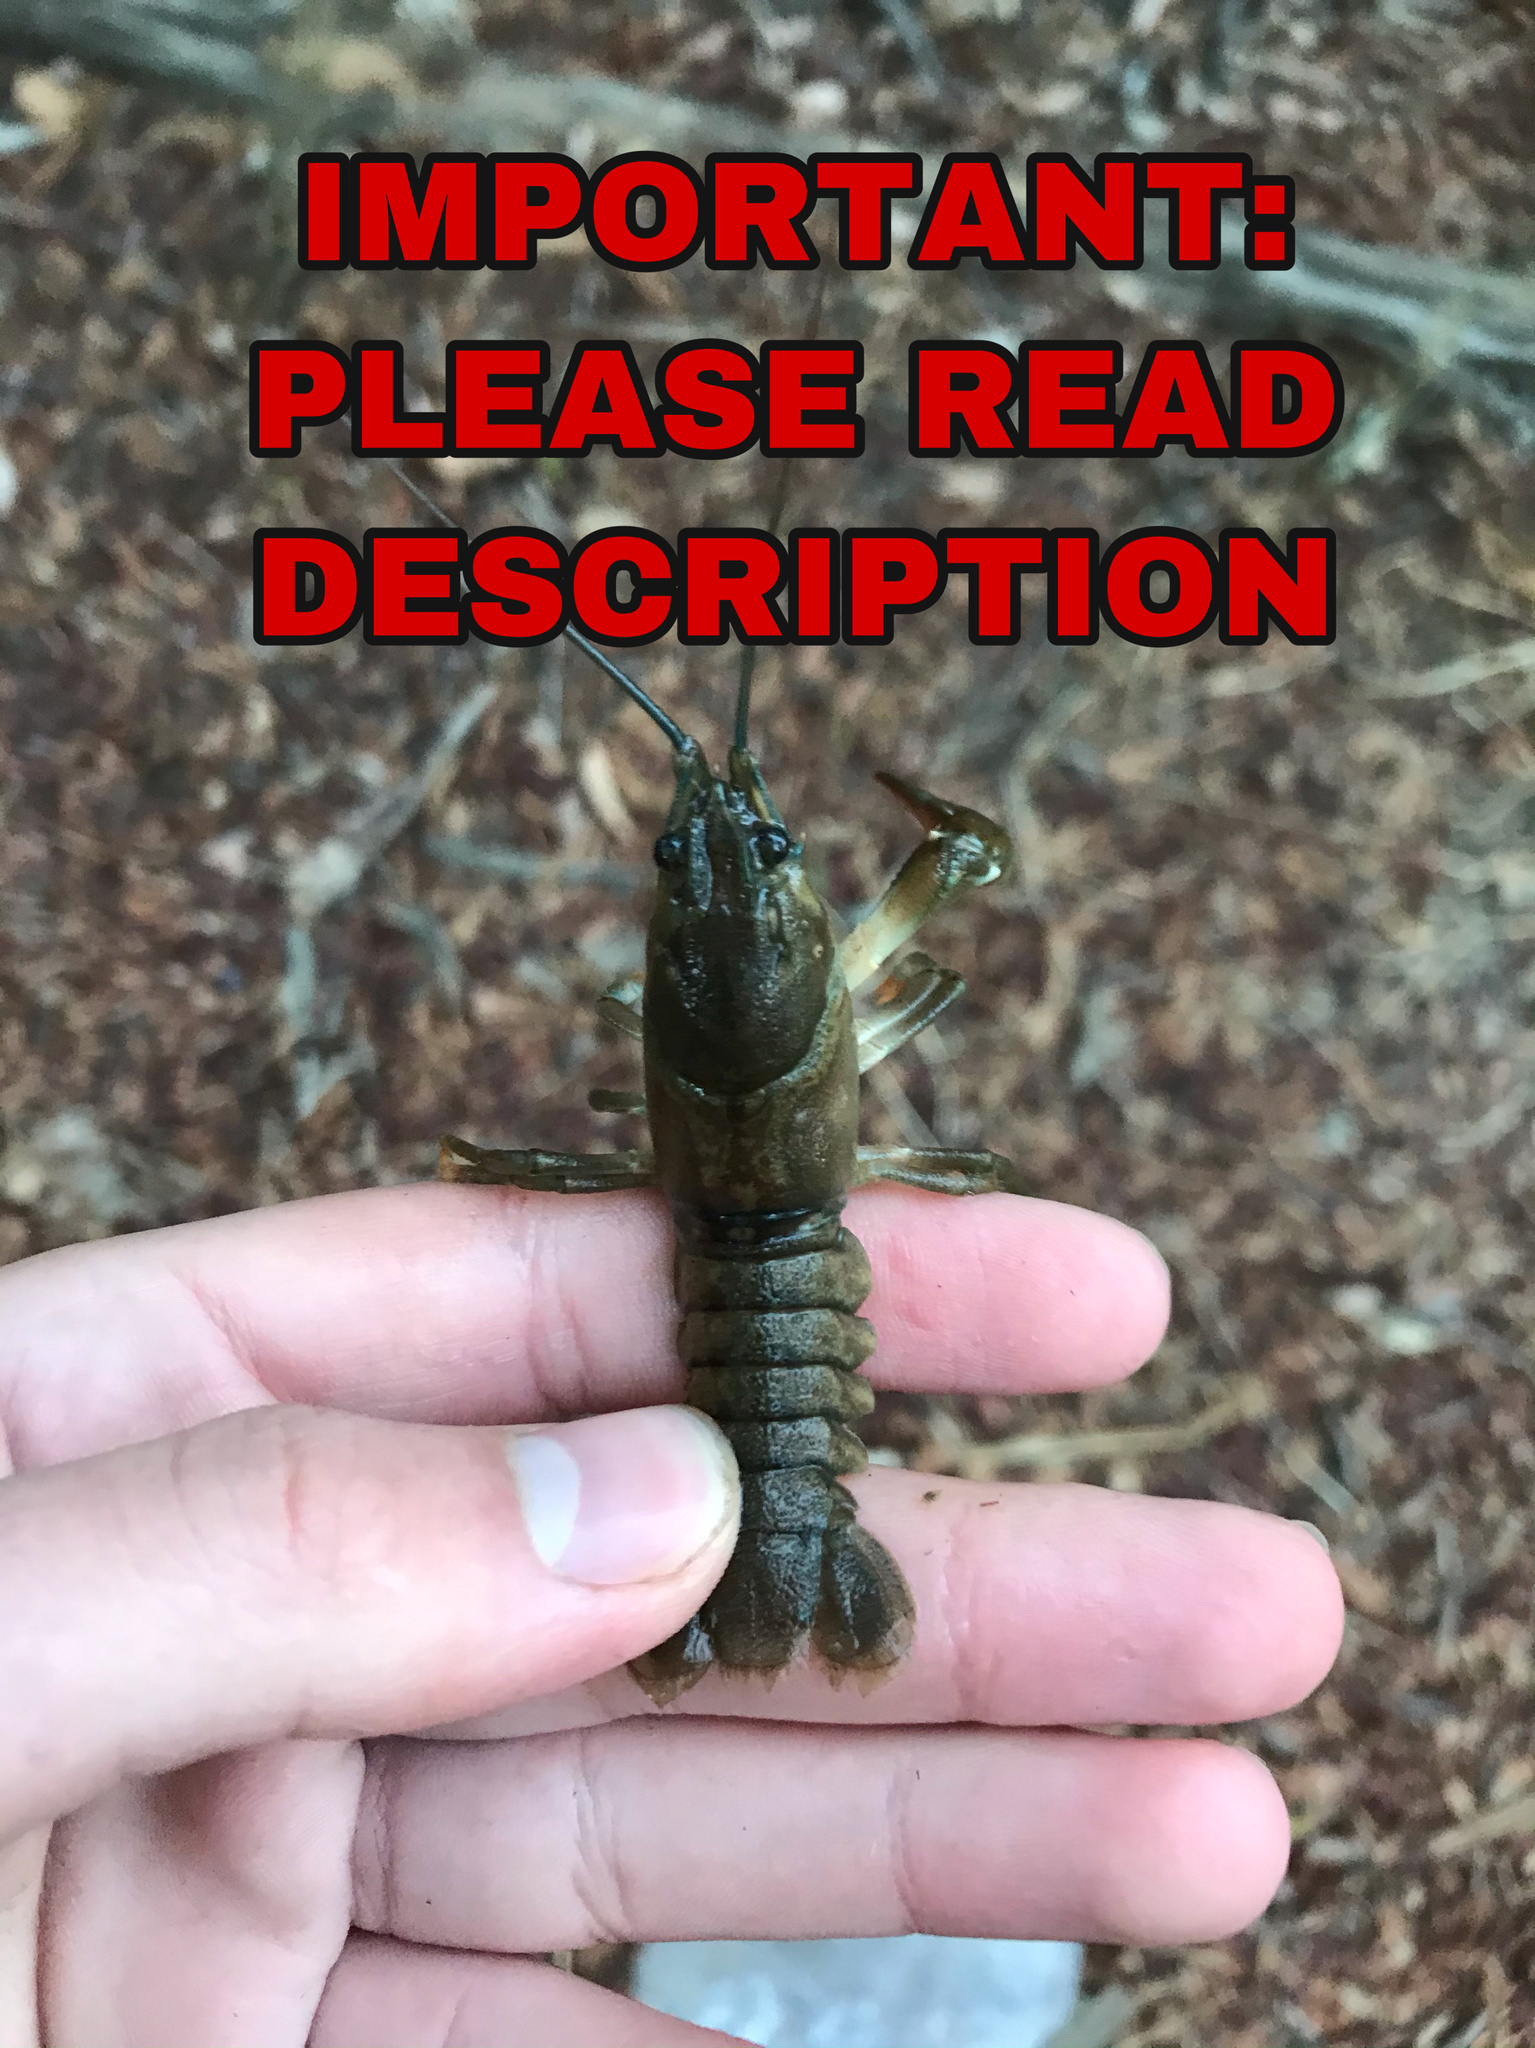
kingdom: Animalia
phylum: Arthropoda
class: Malacostraca
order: Decapoda
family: Astacidae
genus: Pacifastacus
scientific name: Pacifastacus leniusculus
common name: Signal crayfish
